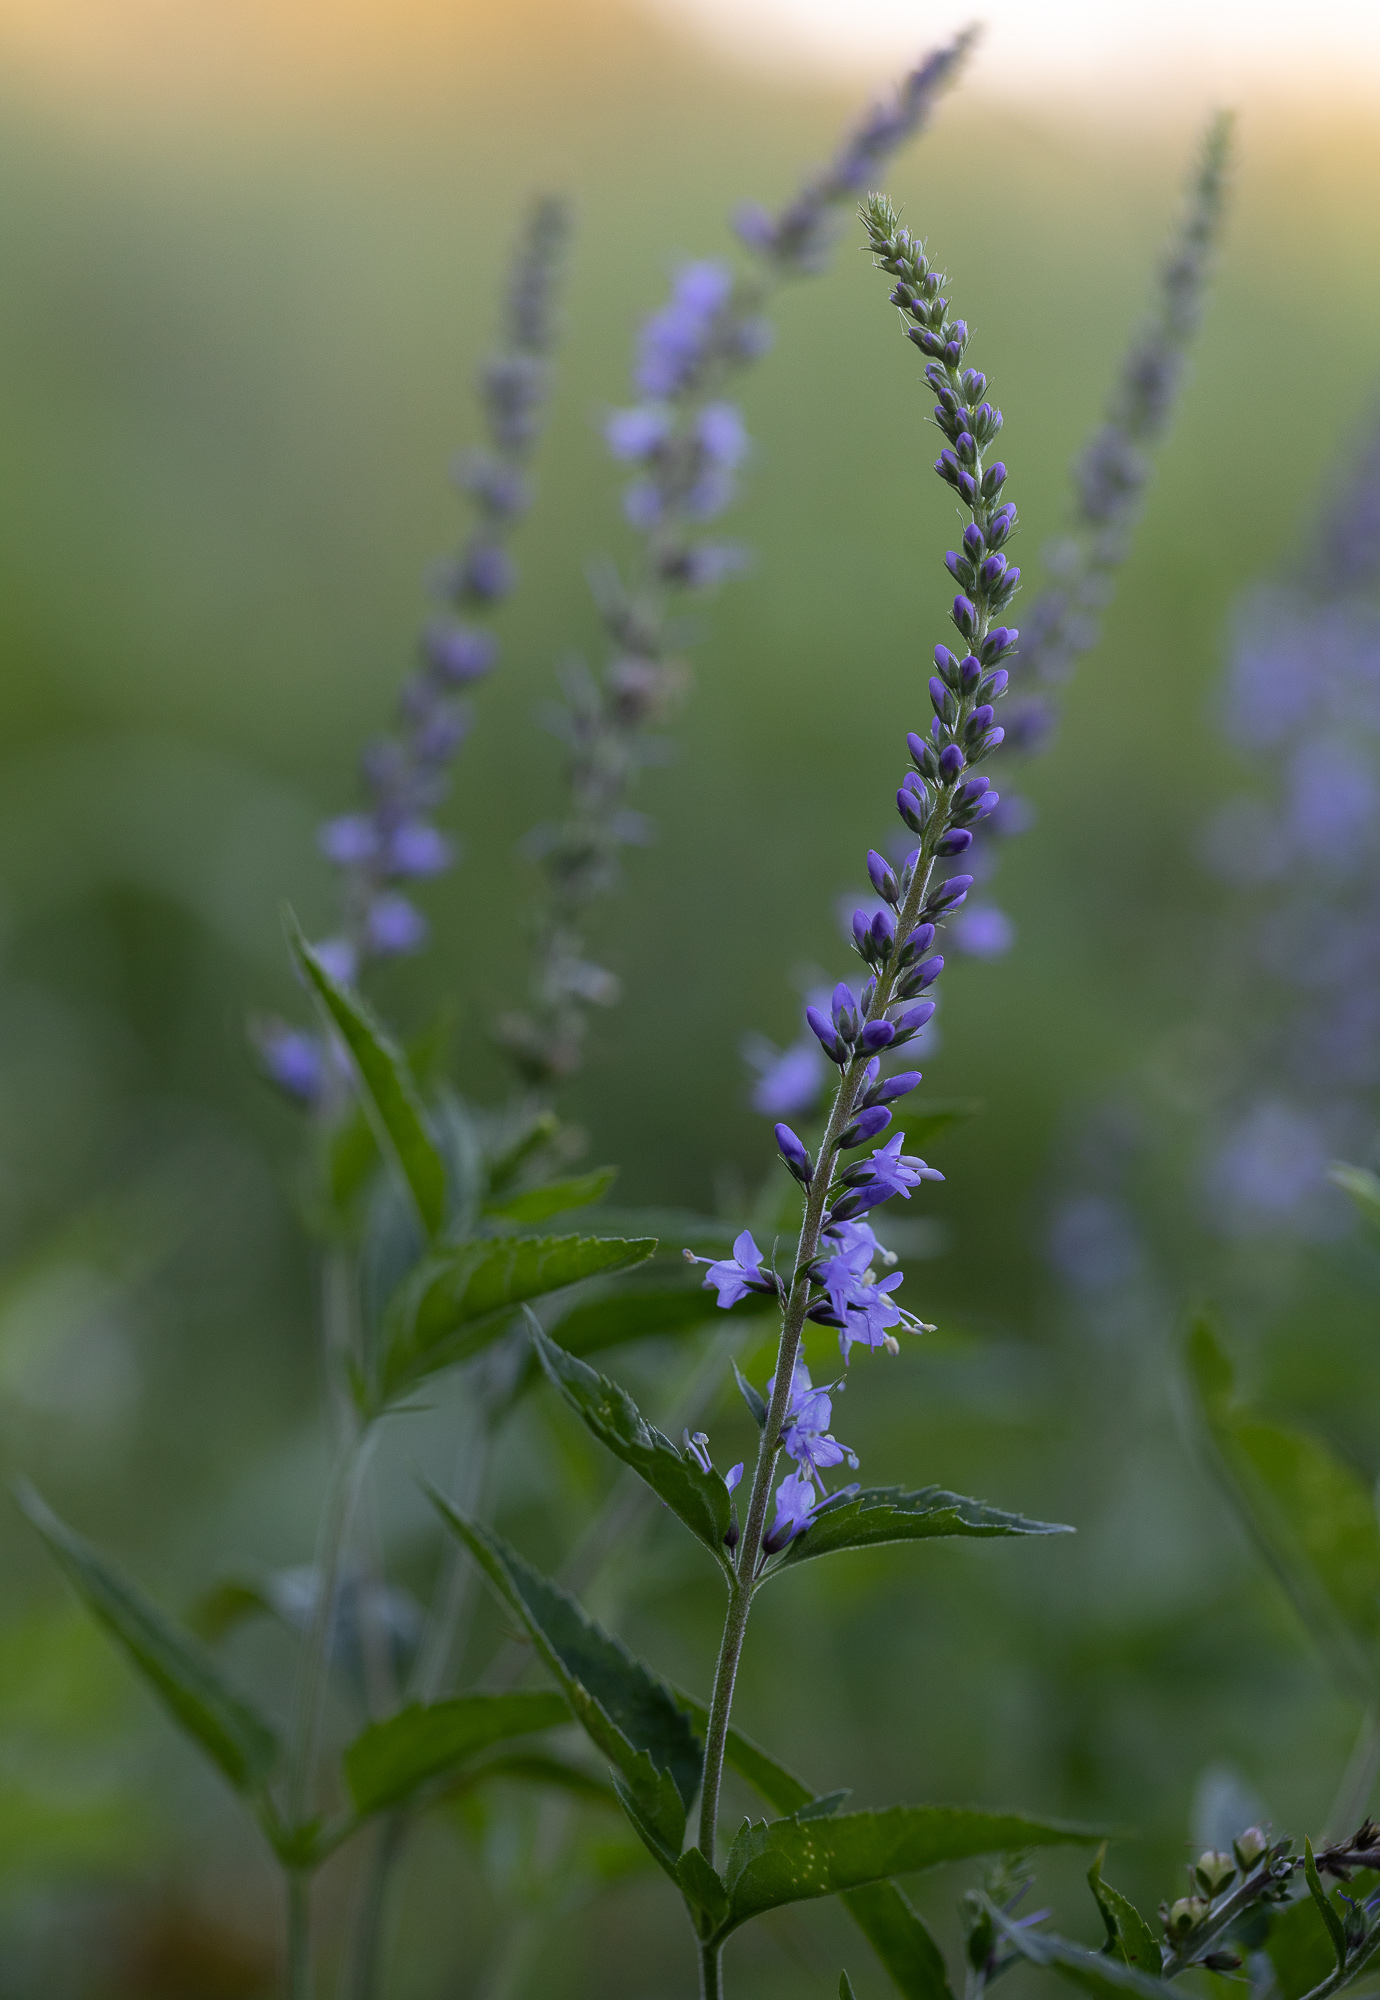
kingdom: Plantae
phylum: Tracheophyta
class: Magnoliopsida
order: Lamiales
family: Plantaginaceae
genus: Veronica
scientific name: Veronica longifolia
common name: Garden speedwell
